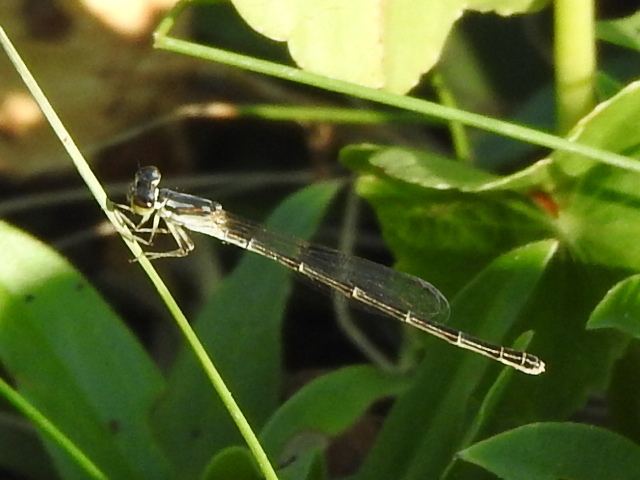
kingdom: Animalia
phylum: Arthropoda
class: Insecta
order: Odonata
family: Coenagrionidae
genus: Ischnura
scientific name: Ischnura posita
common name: Fragile forktail
